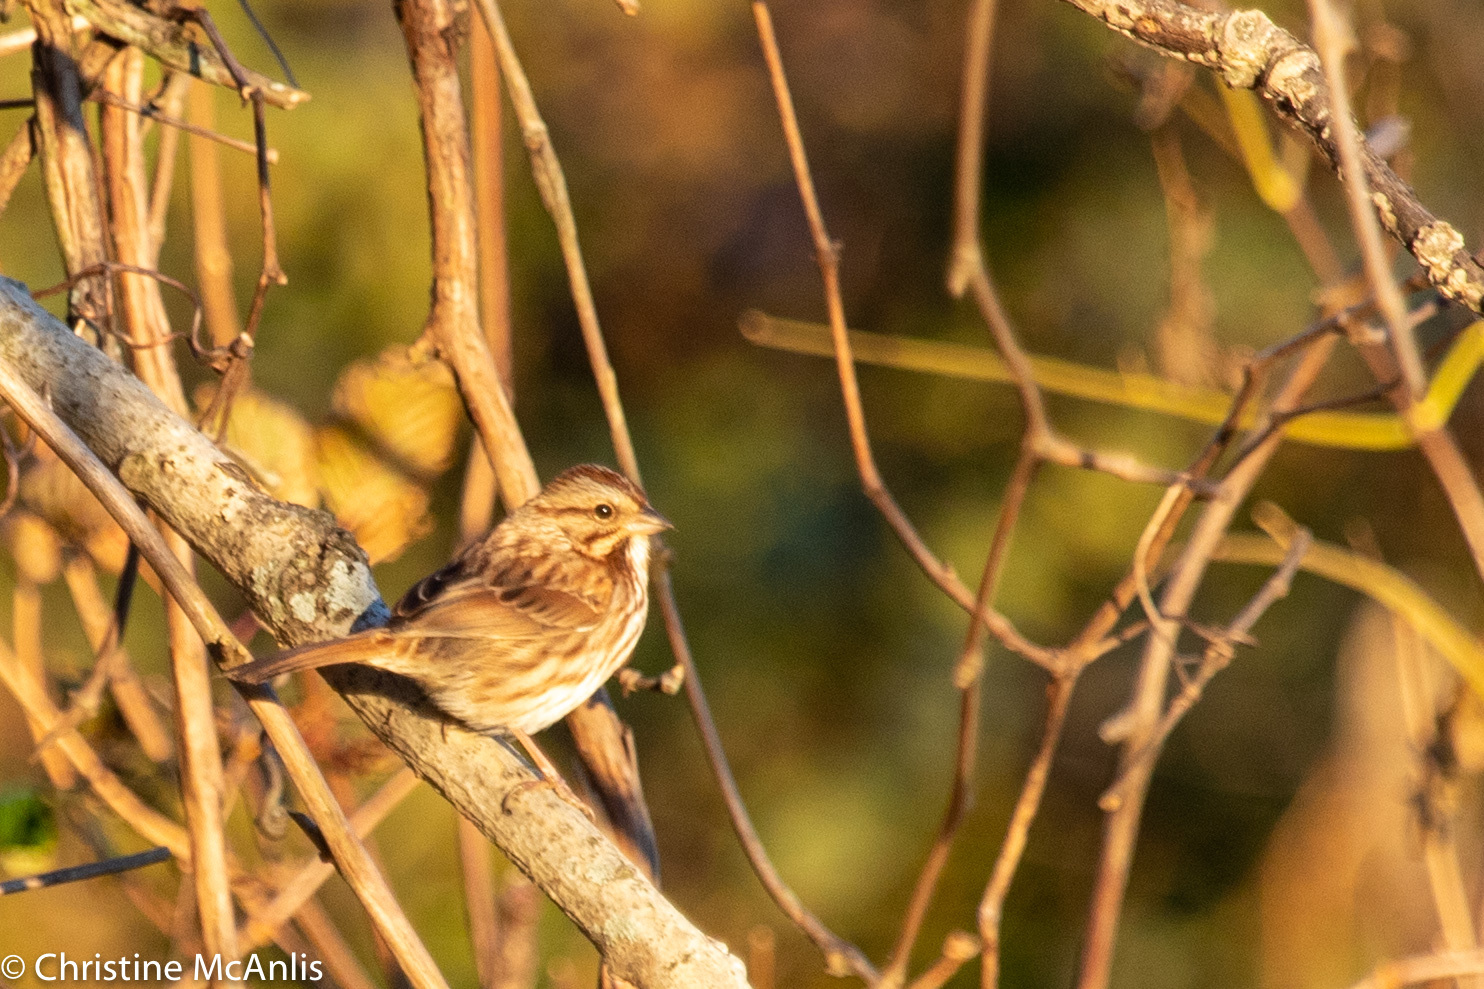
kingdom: Animalia
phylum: Chordata
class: Aves
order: Passeriformes
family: Passerellidae
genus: Melospiza
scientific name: Melospiza melodia
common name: Song sparrow
